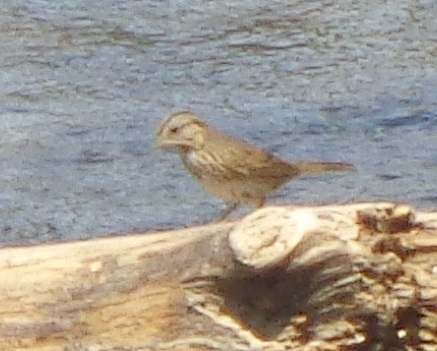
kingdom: Animalia
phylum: Chordata
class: Aves
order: Passeriformes
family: Passerellidae
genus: Melospiza
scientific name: Melospiza lincolnii
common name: Lincoln's sparrow
